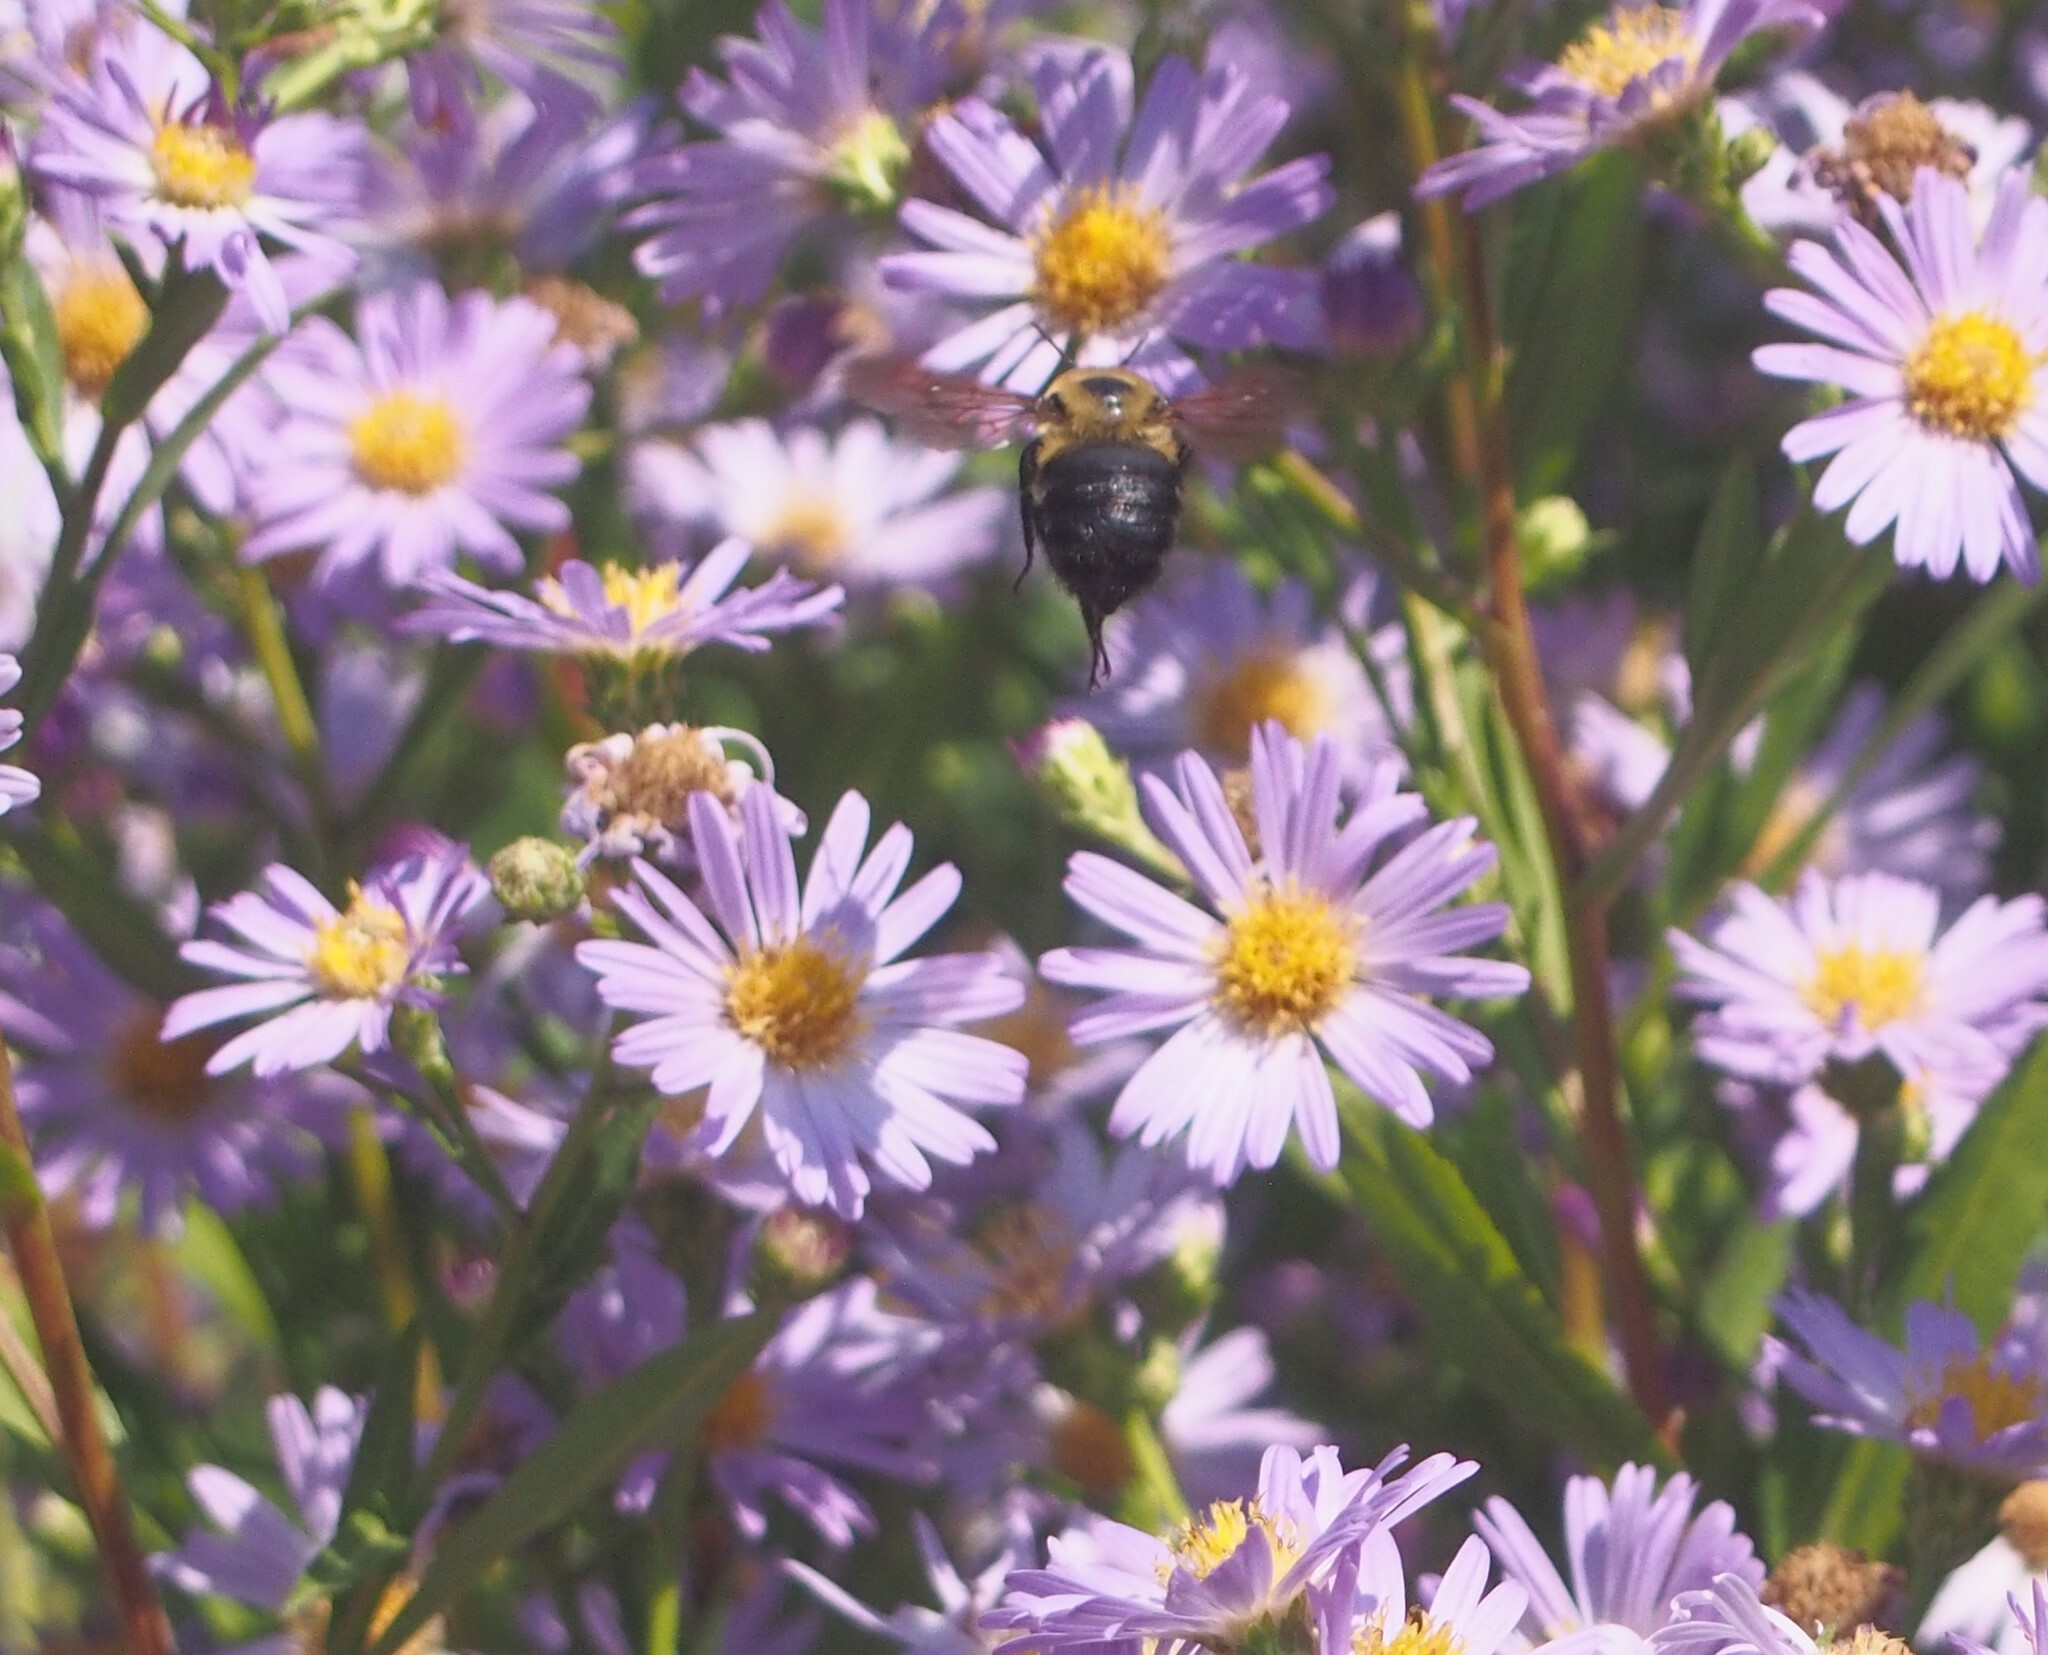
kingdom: Animalia
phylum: Arthropoda
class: Insecta
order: Hymenoptera
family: Apidae
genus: Bombus
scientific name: Bombus griseocollis
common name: Brown-belted bumble bee
